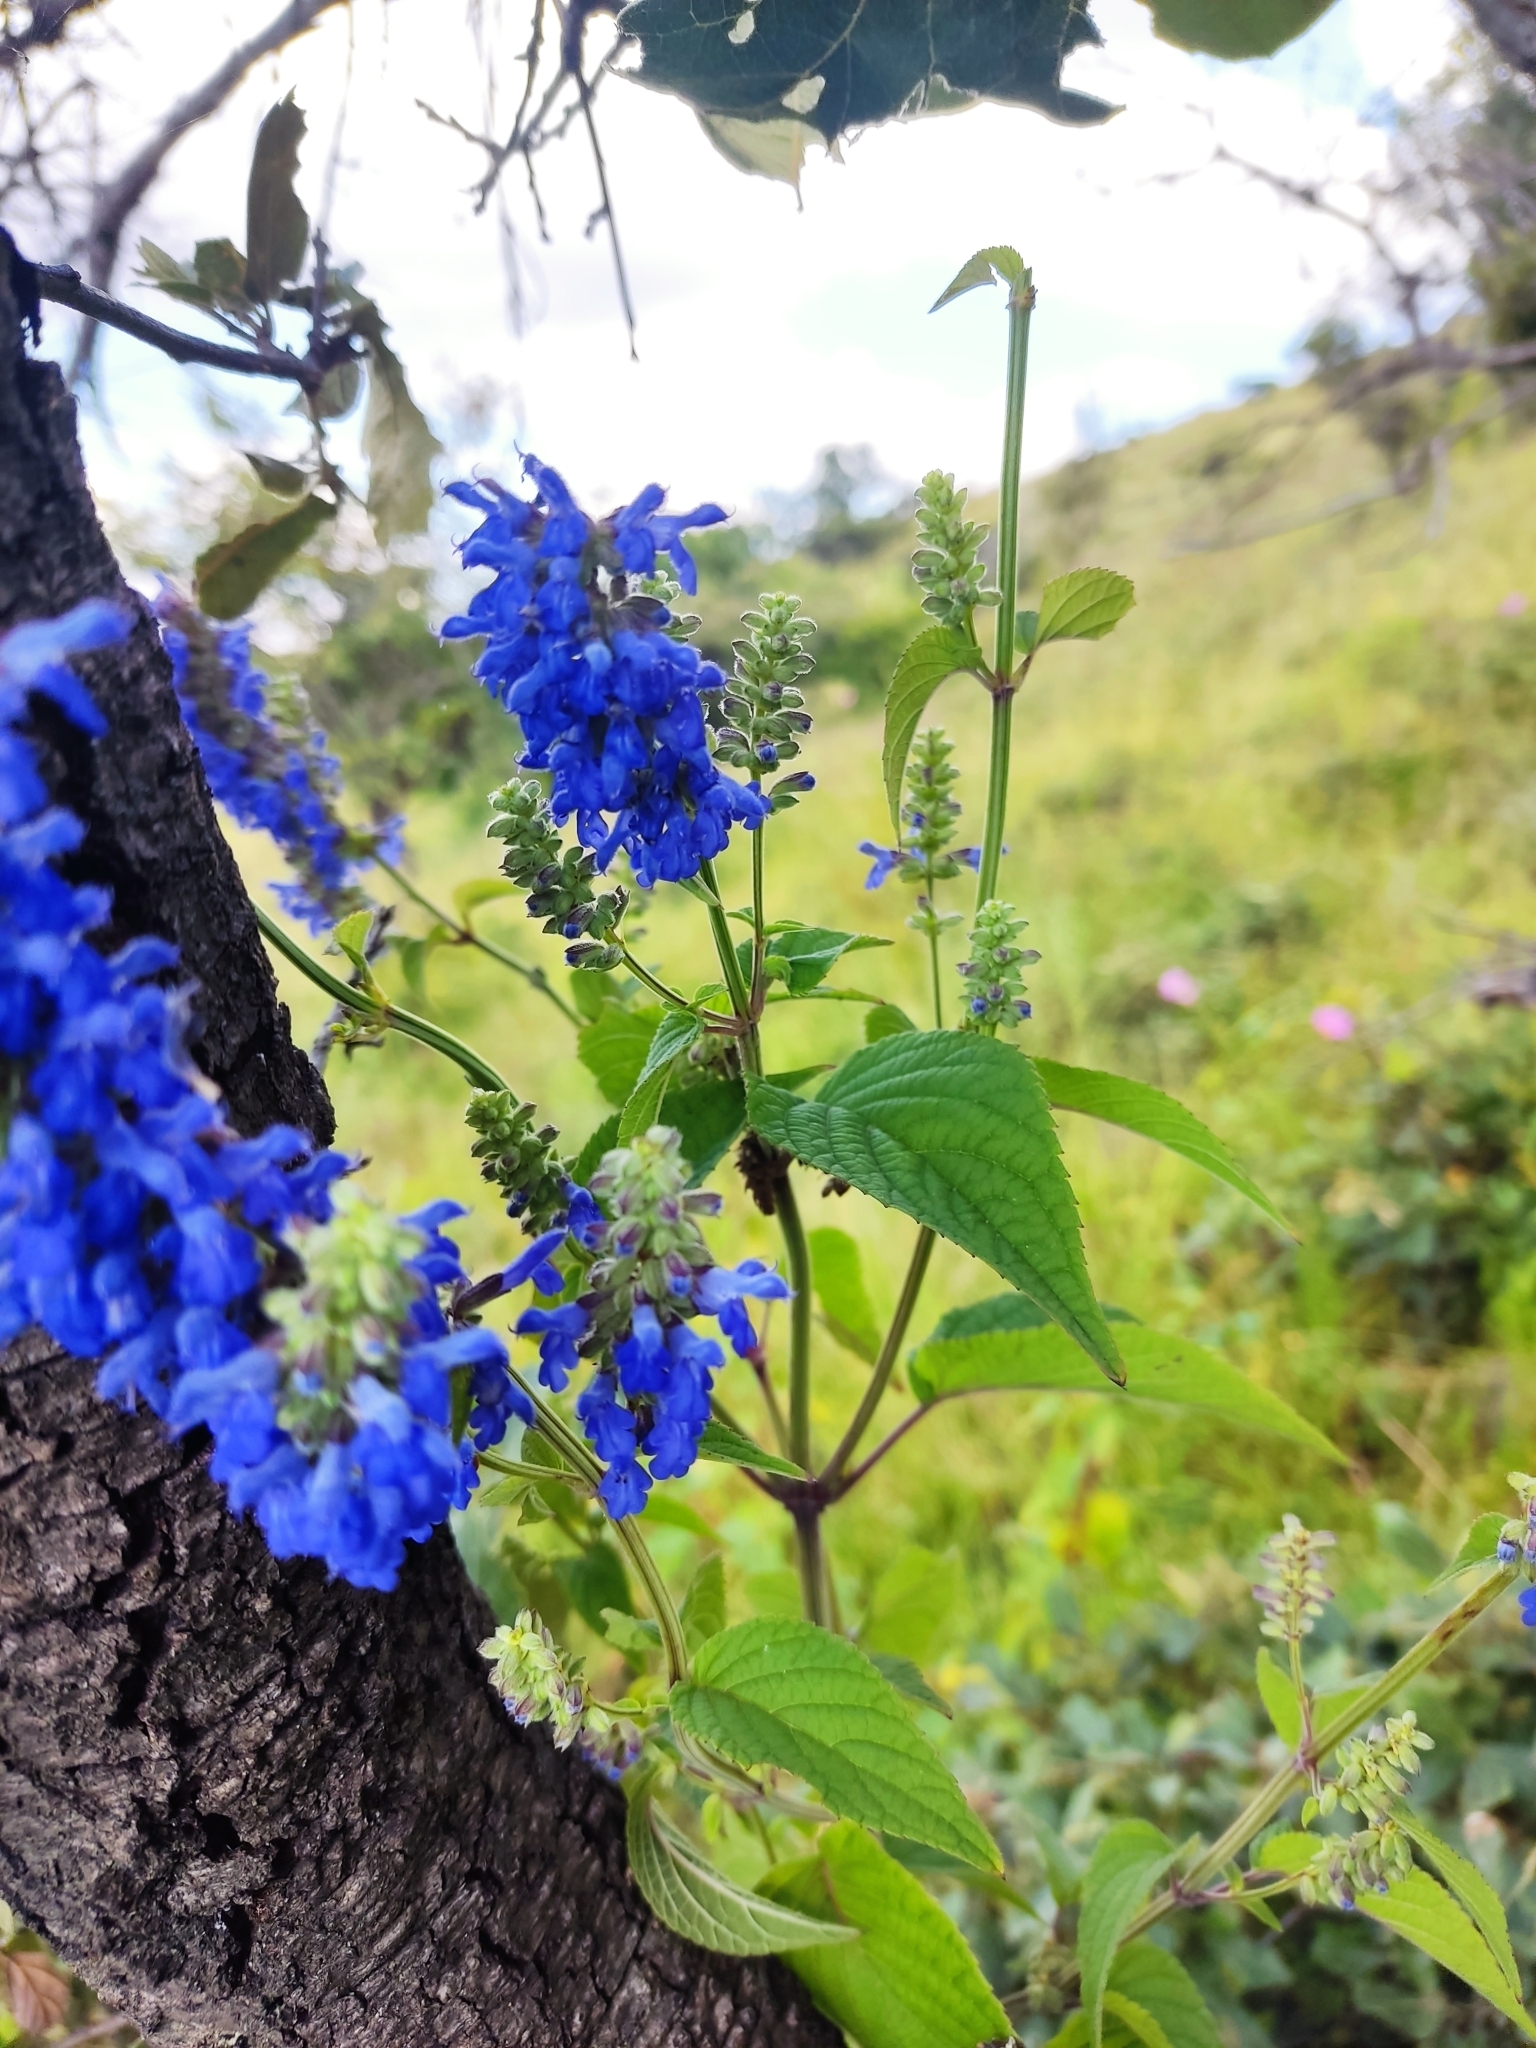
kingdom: Plantae
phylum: Tracheophyta
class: Magnoliopsida
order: Lamiales
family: Lamiaceae
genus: Salvia
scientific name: Salvia polystachia
